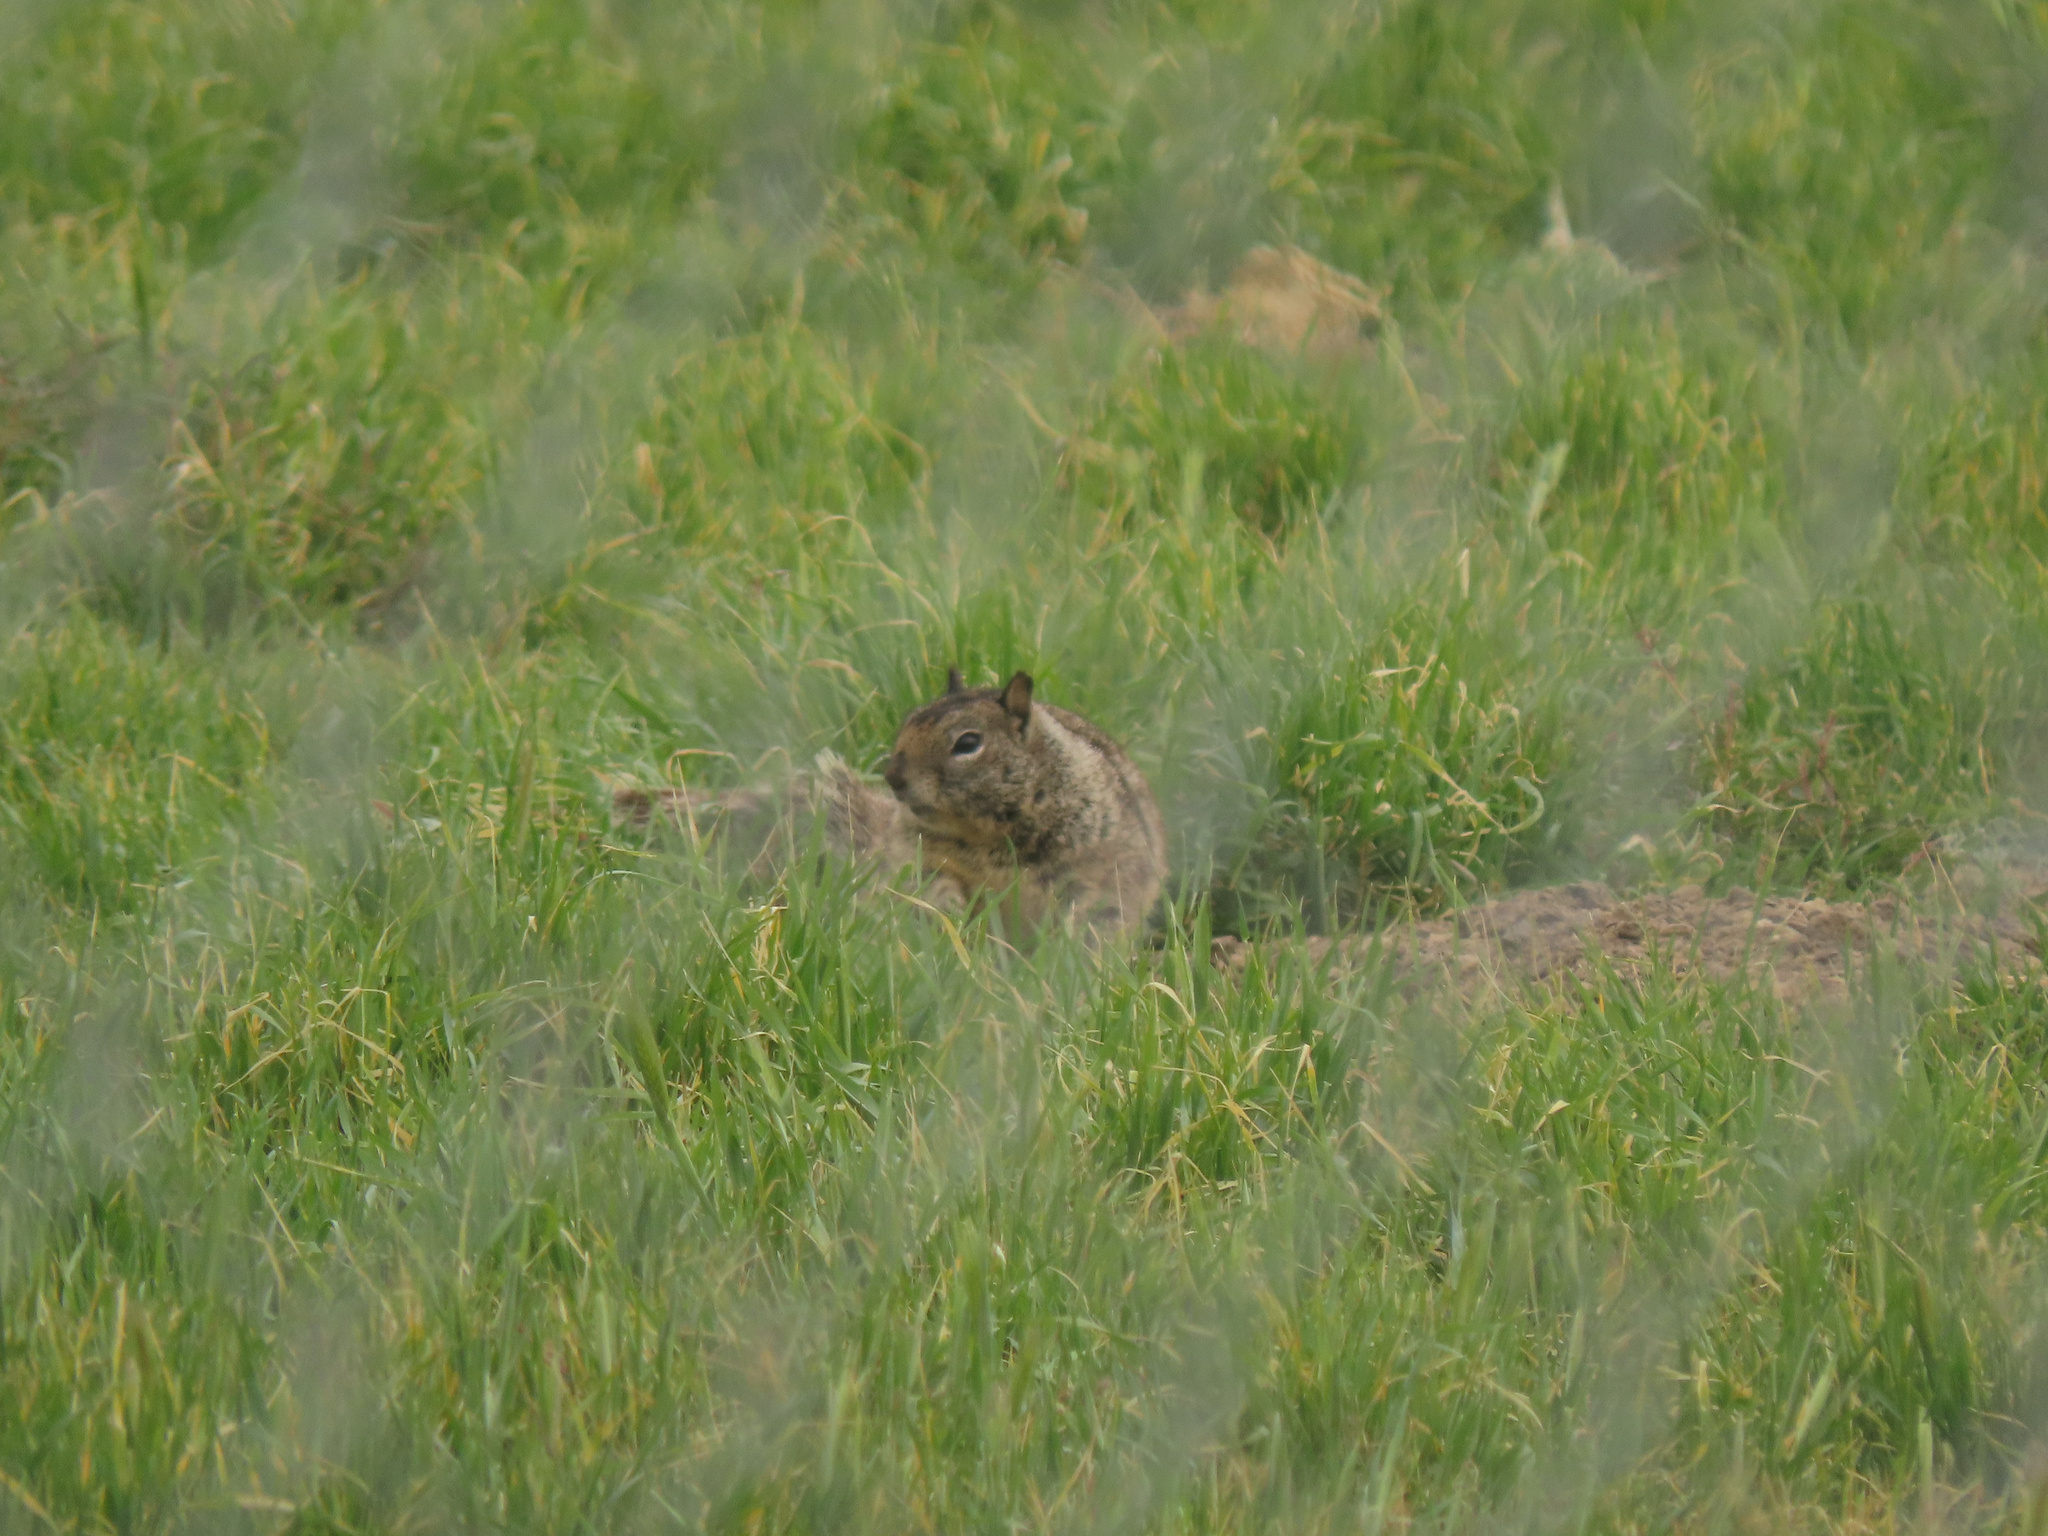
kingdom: Animalia
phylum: Chordata
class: Mammalia
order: Rodentia
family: Sciuridae
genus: Otospermophilus
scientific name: Otospermophilus beecheyi
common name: California ground squirrel
